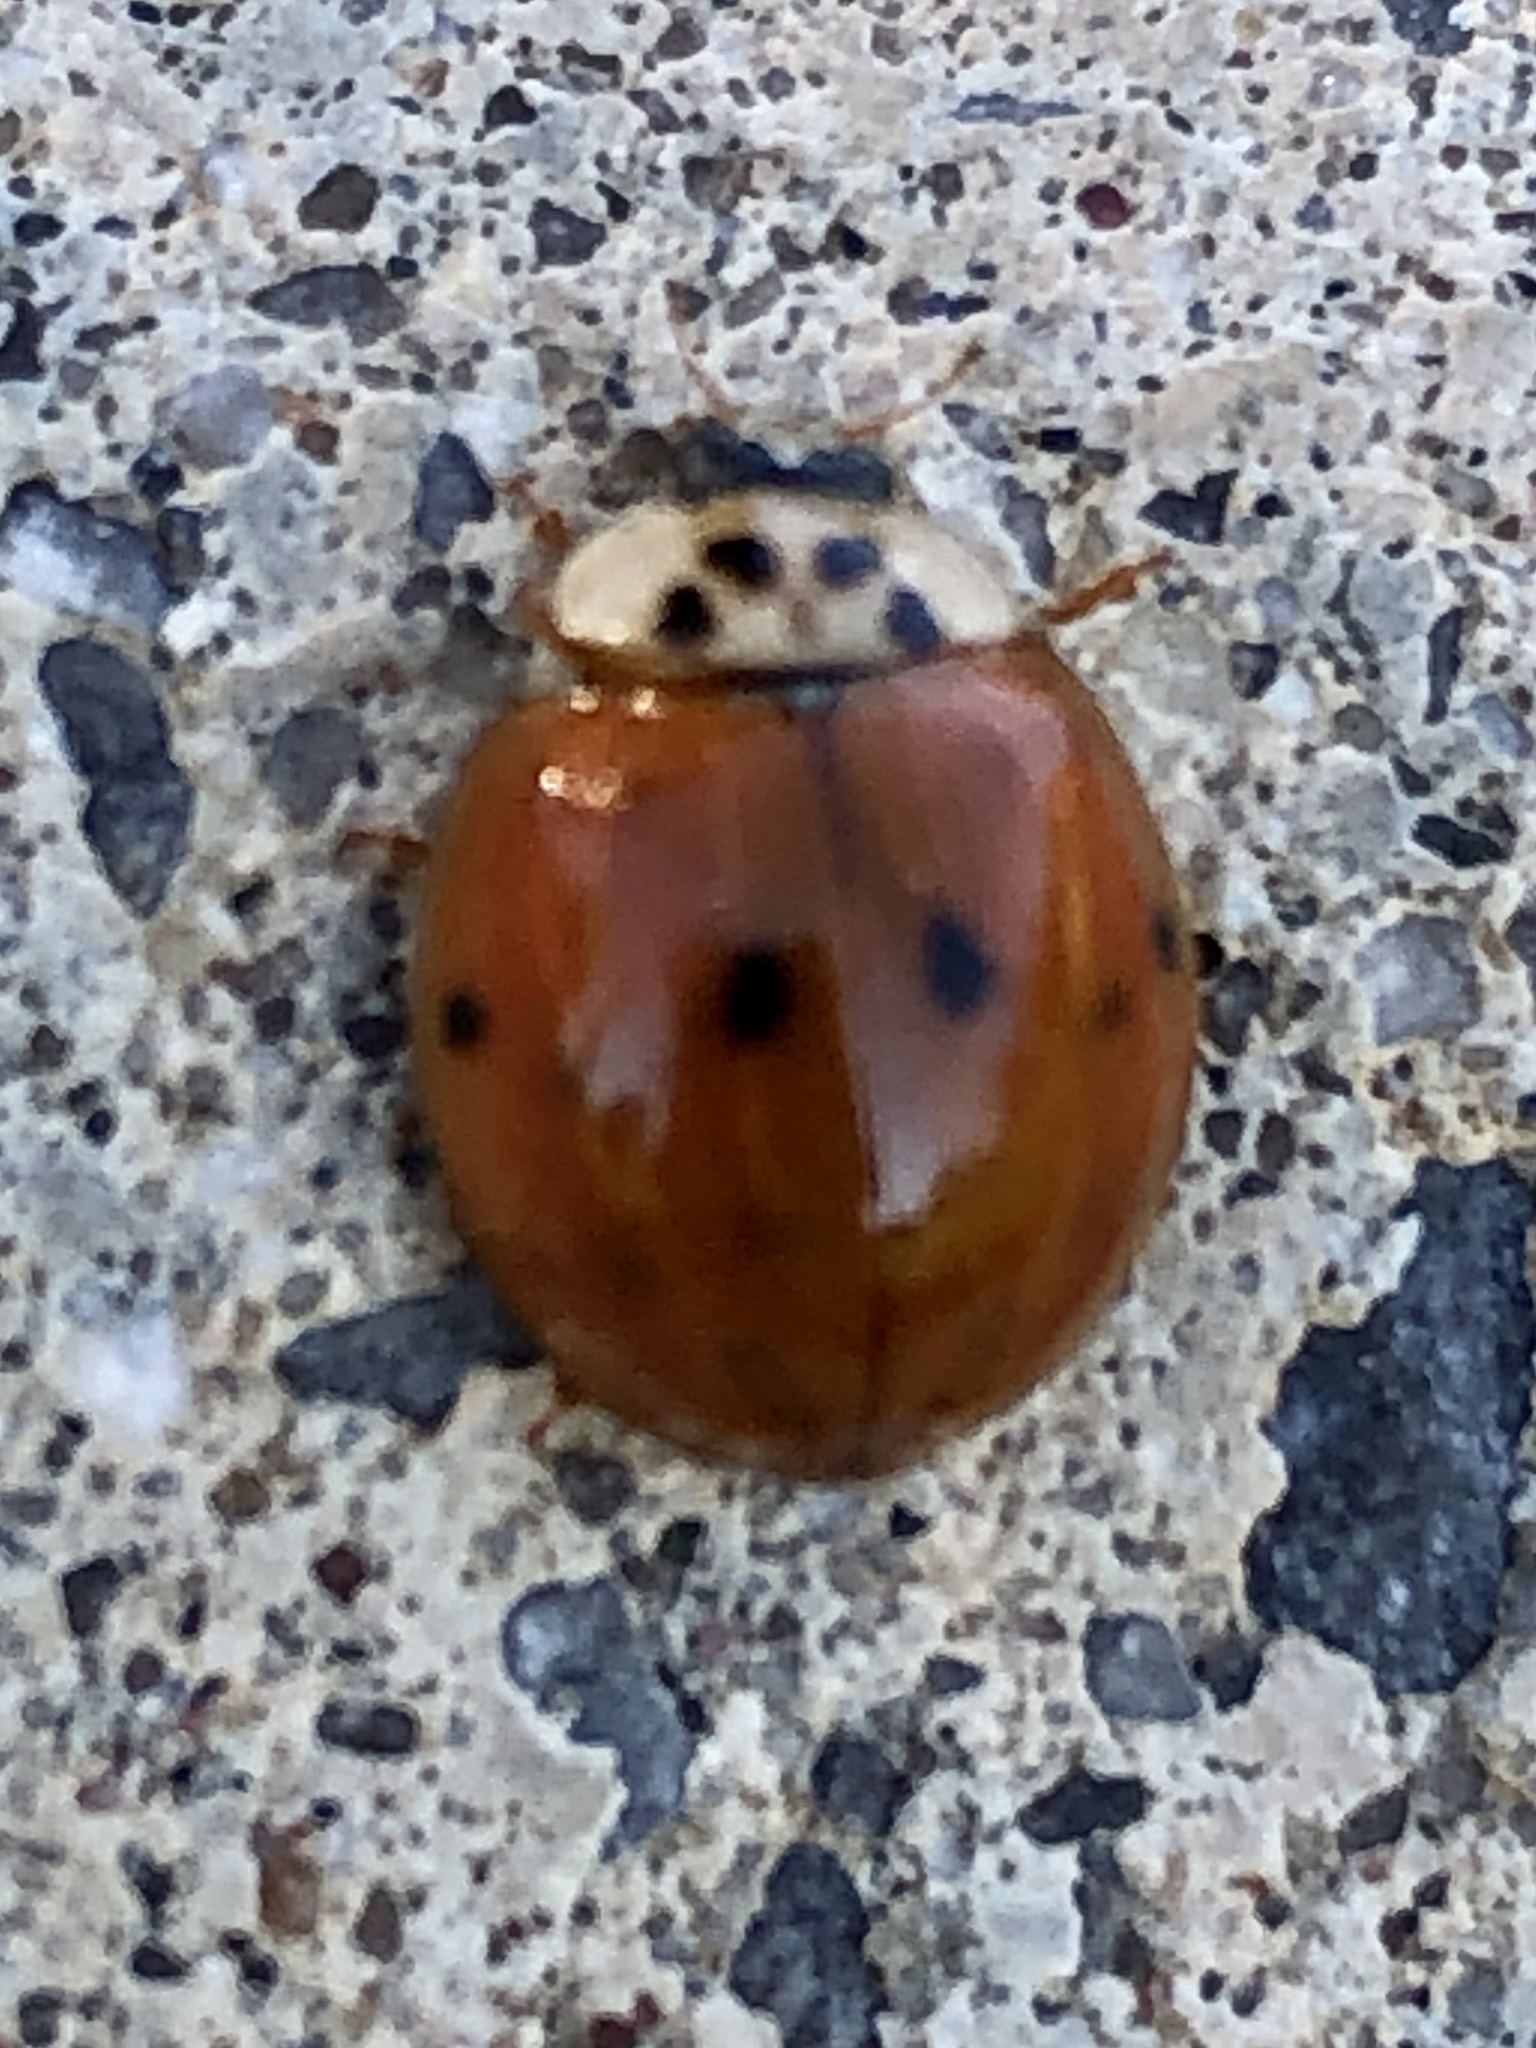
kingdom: Animalia
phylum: Arthropoda
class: Insecta
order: Coleoptera
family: Coccinellidae
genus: Harmonia
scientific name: Harmonia axyridis
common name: Harlequin ladybird
